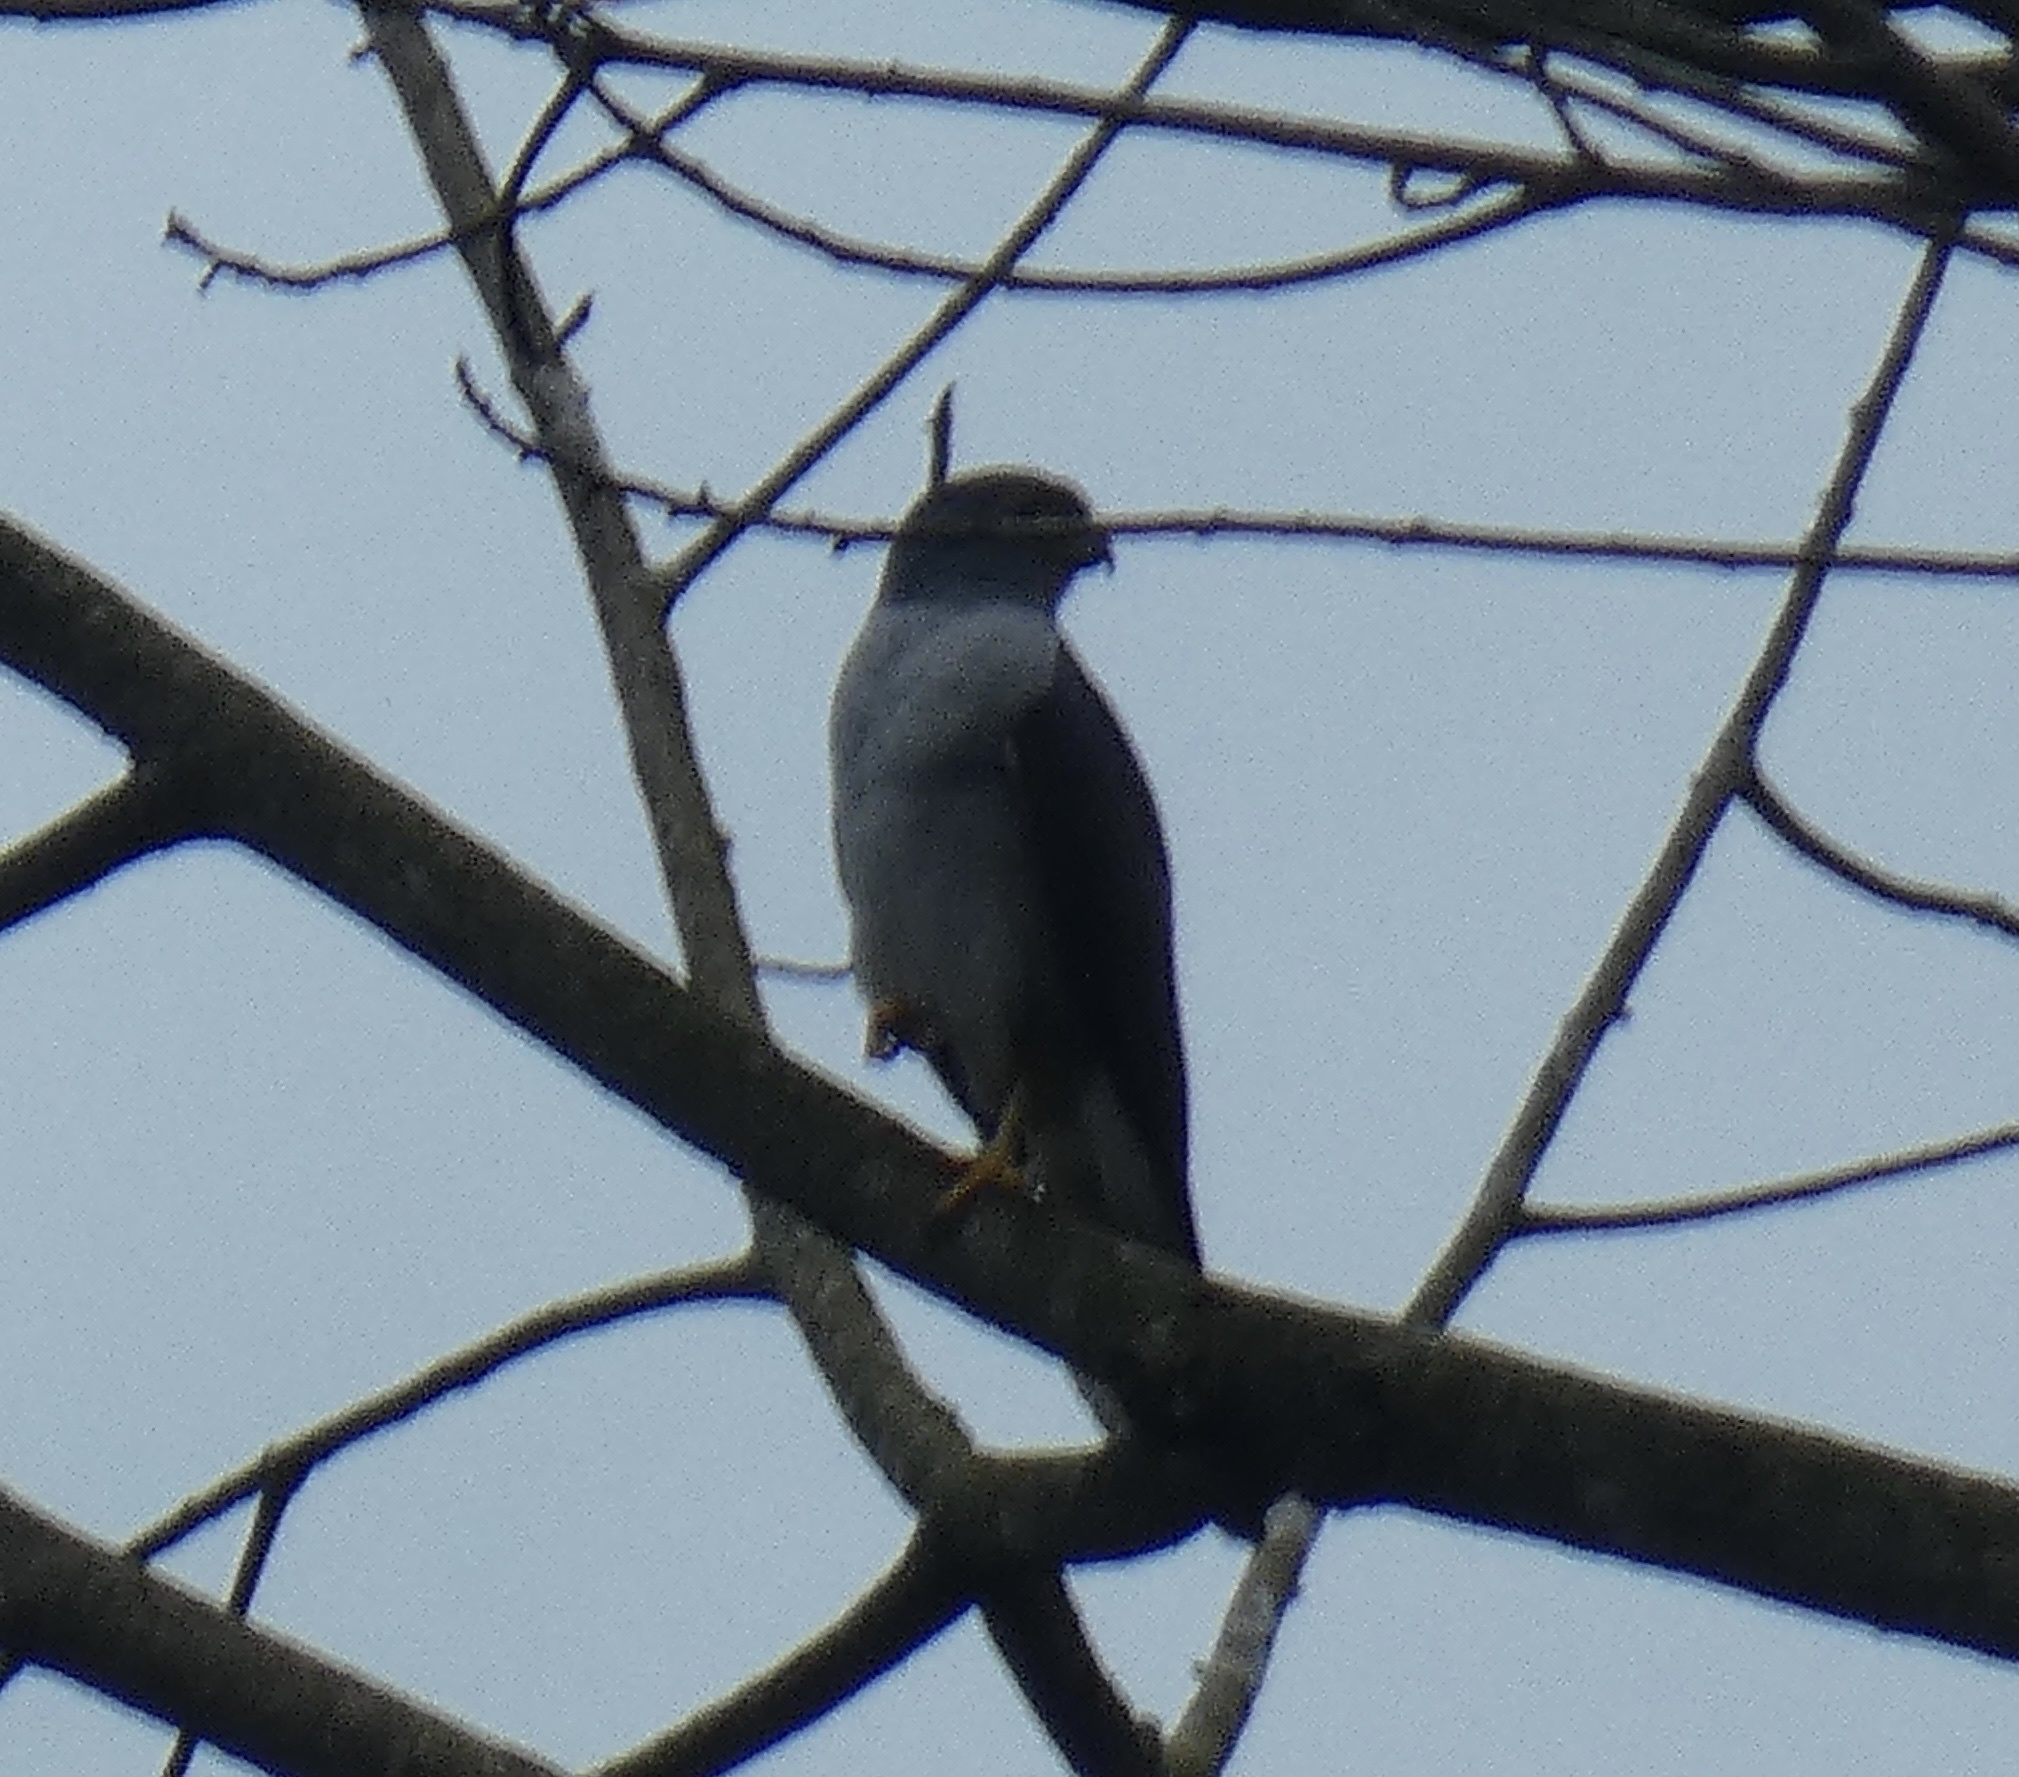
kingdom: Animalia
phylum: Chordata
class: Aves
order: Accipitriformes
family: Accipitridae
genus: Harpagus
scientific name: Harpagus diodon
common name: Rufous-thighed kite
